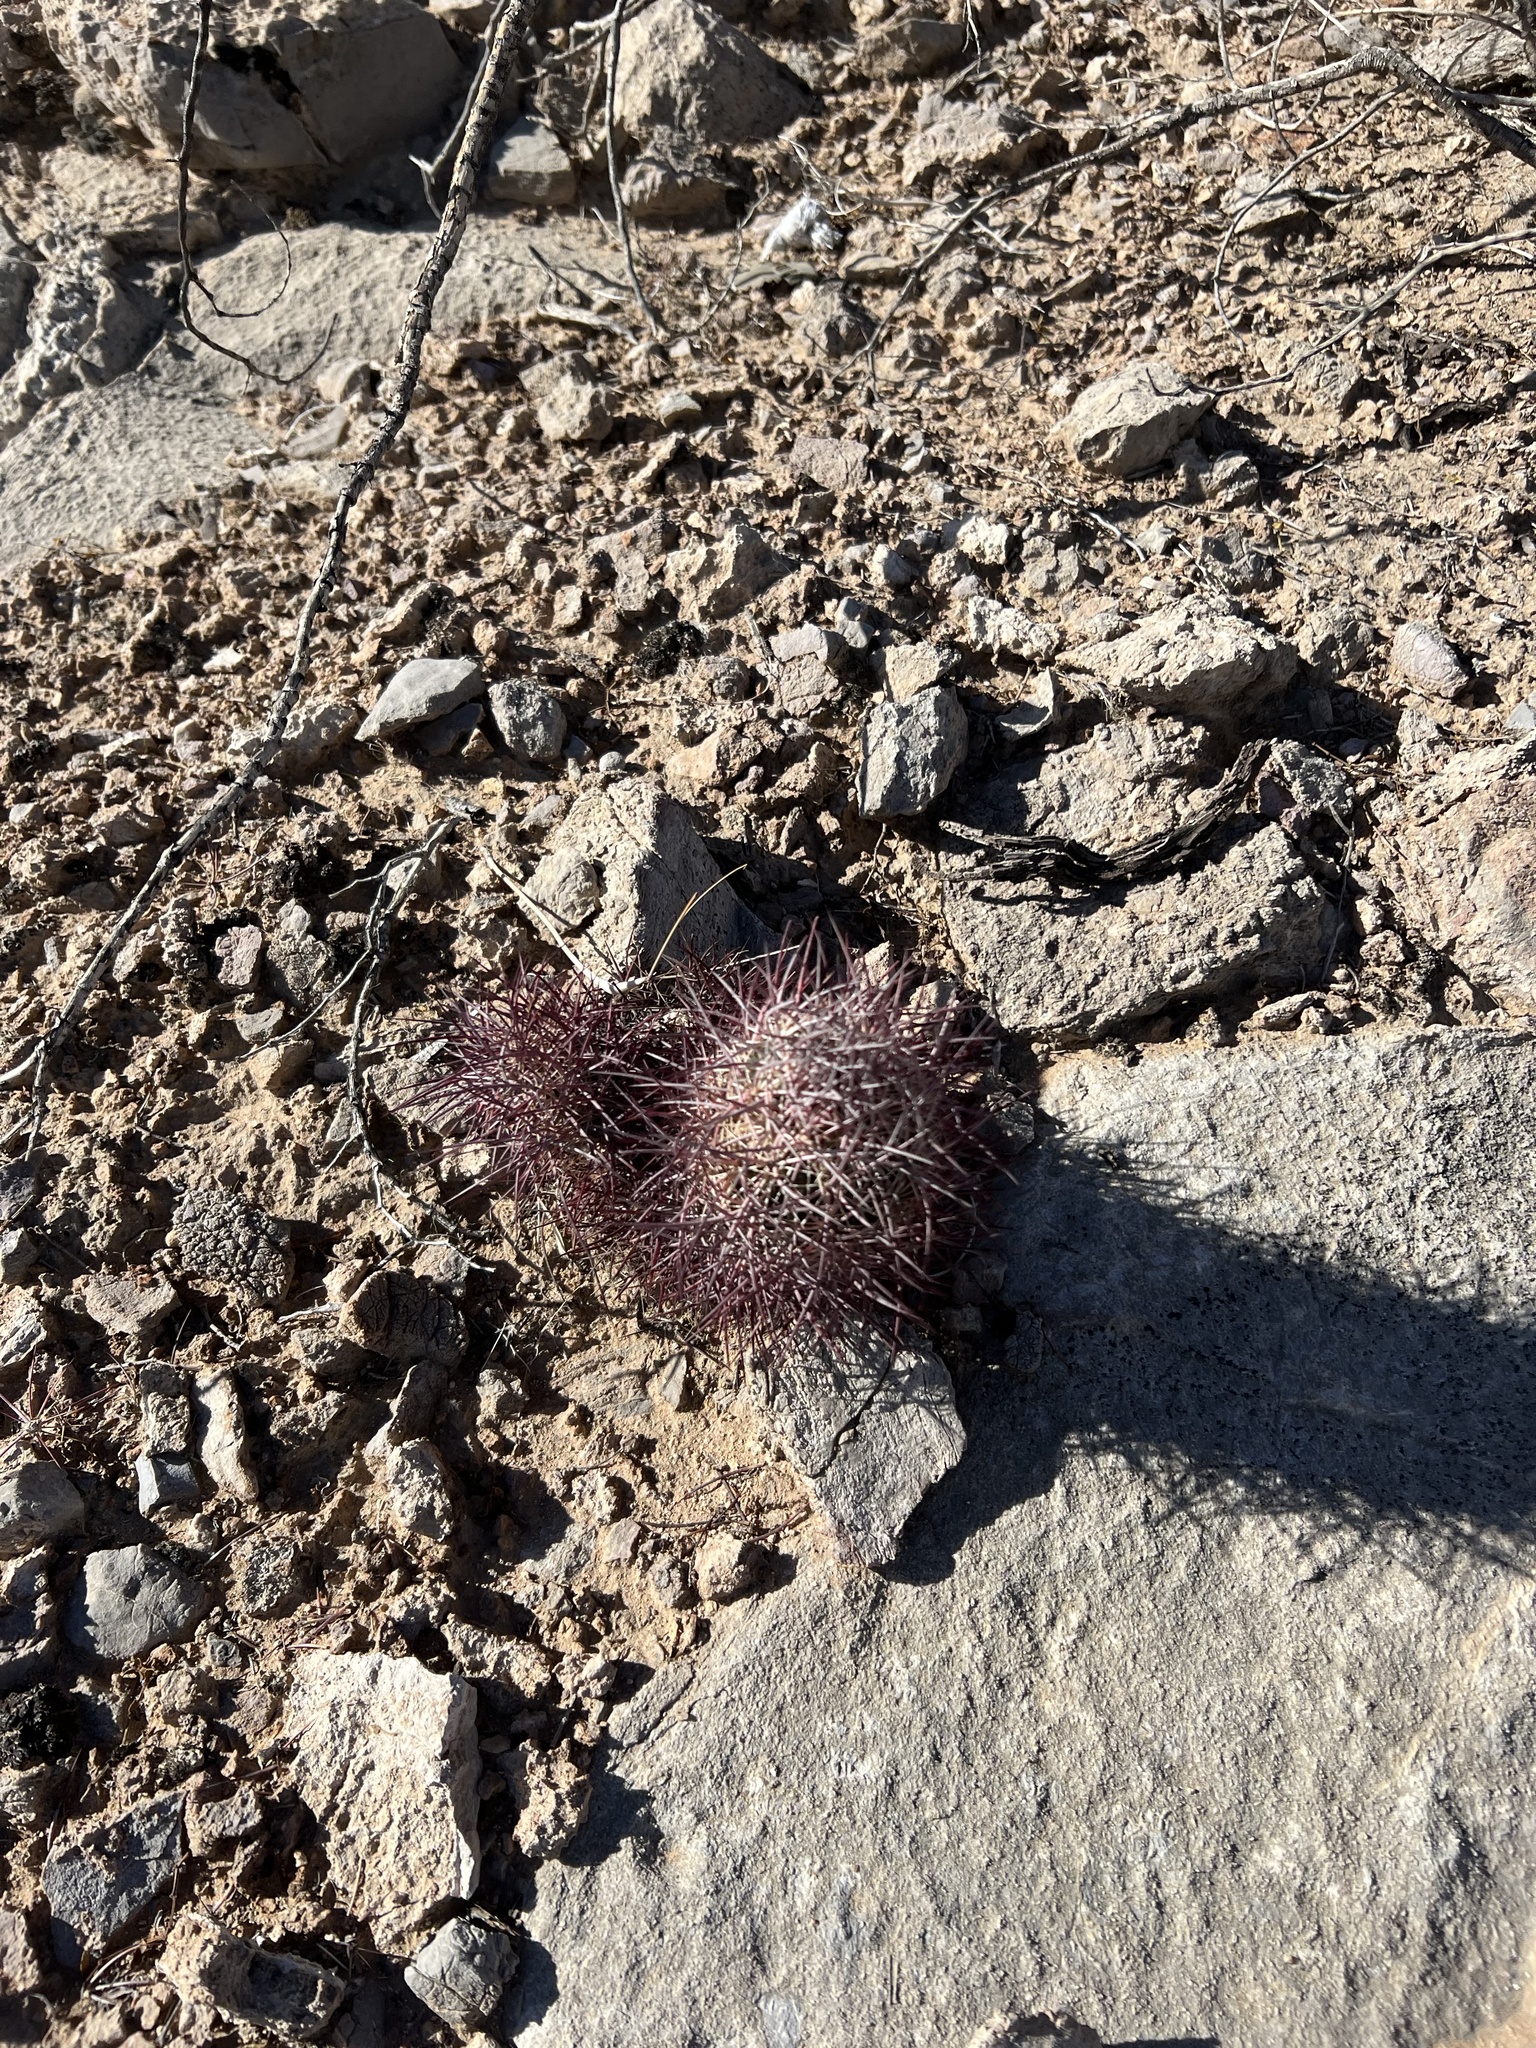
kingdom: Plantae
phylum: Tracheophyta
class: Magnoliopsida
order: Caryophyllales
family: Cactaceae
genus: Sclerocactus
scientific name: Sclerocactus johnsonii
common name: Eight-spine fishhook cactus
